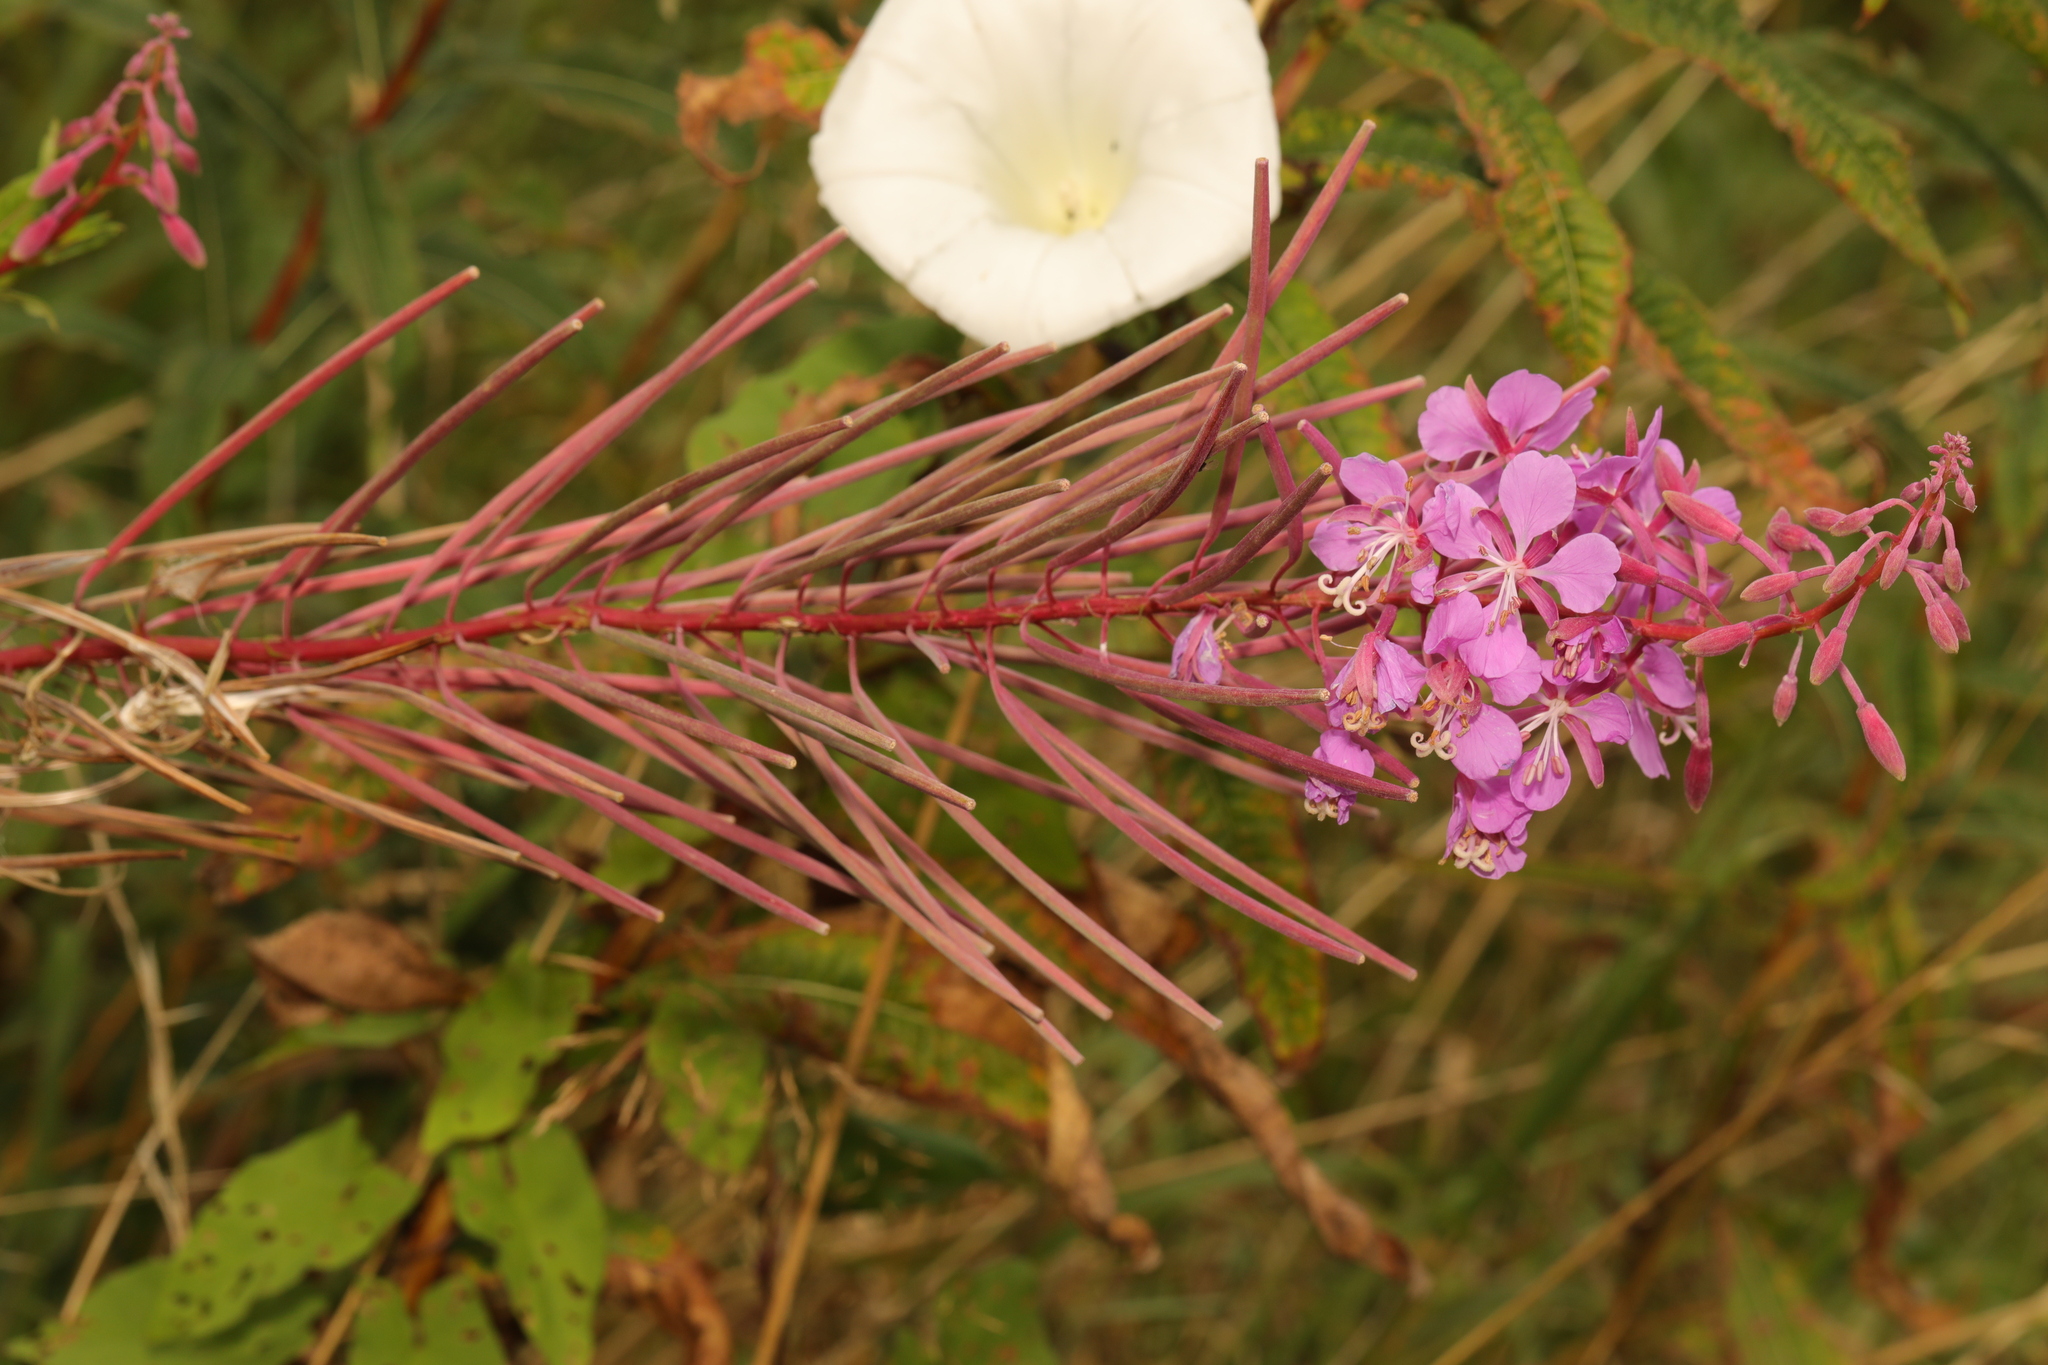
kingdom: Plantae
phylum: Tracheophyta
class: Magnoliopsida
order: Myrtales
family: Onagraceae
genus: Chamaenerion
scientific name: Chamaenerion angustifolium
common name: Fireweed
